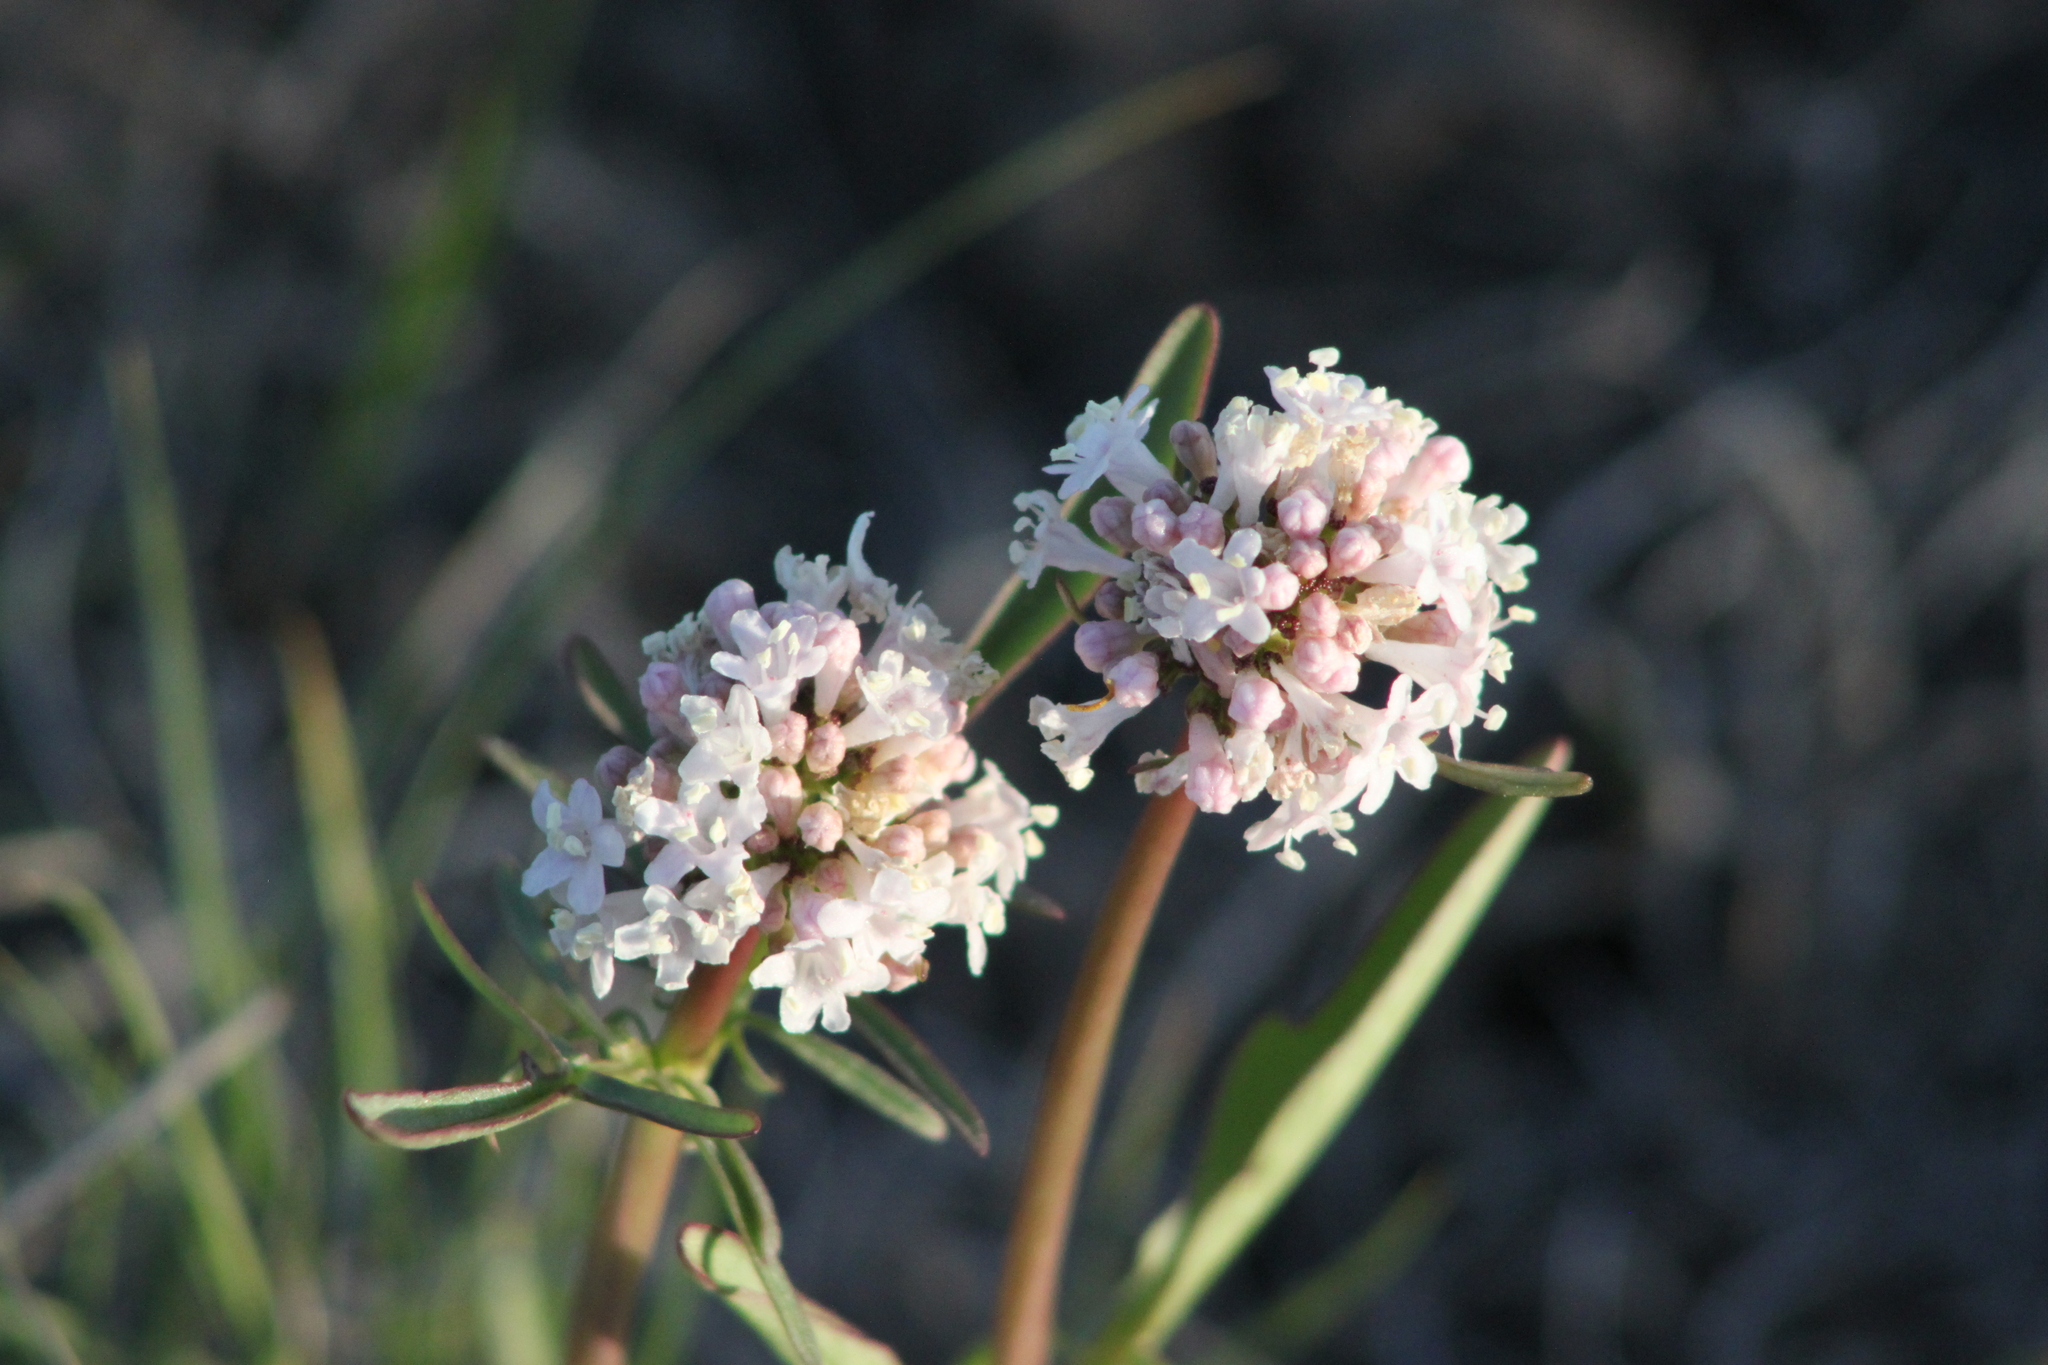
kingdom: Plantae
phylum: Tracheophyta
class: Magnoliopsida
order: Dipsacales
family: Caprifoliaceae
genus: Valeriana
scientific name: Valeriana tuberosa
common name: Tuberous valerian
